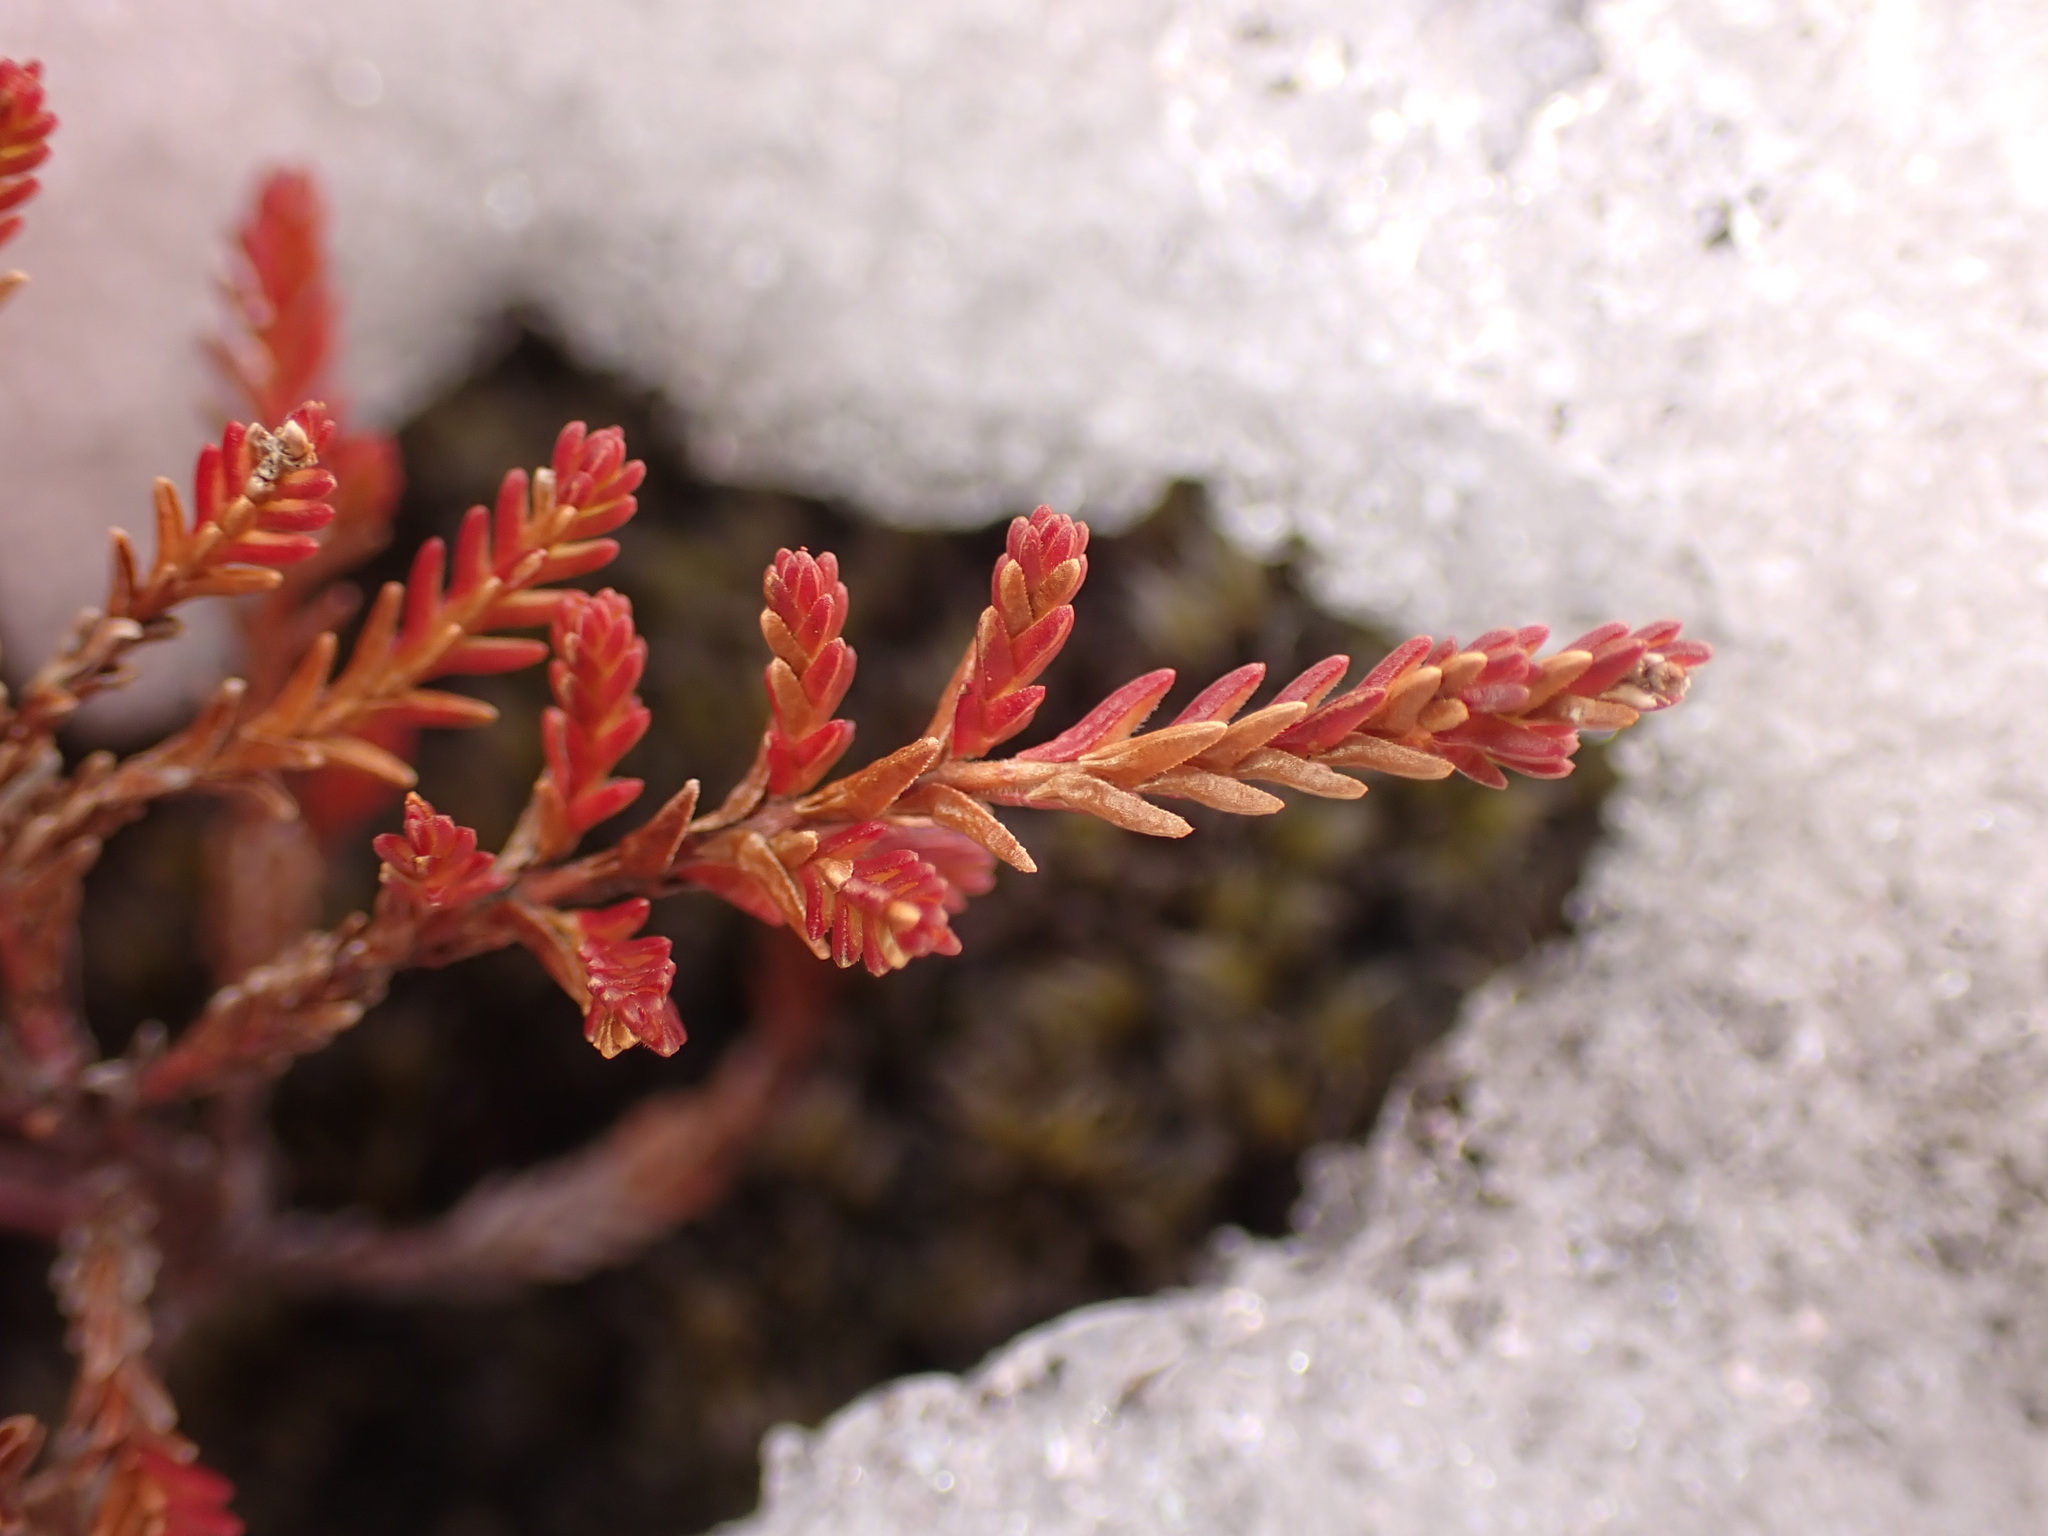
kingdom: Plantae
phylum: Tracheophyta
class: Magnoliopsida
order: Ericales
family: Ericaceae
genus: Calluna
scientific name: Calluna vulgaris
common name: Heather
